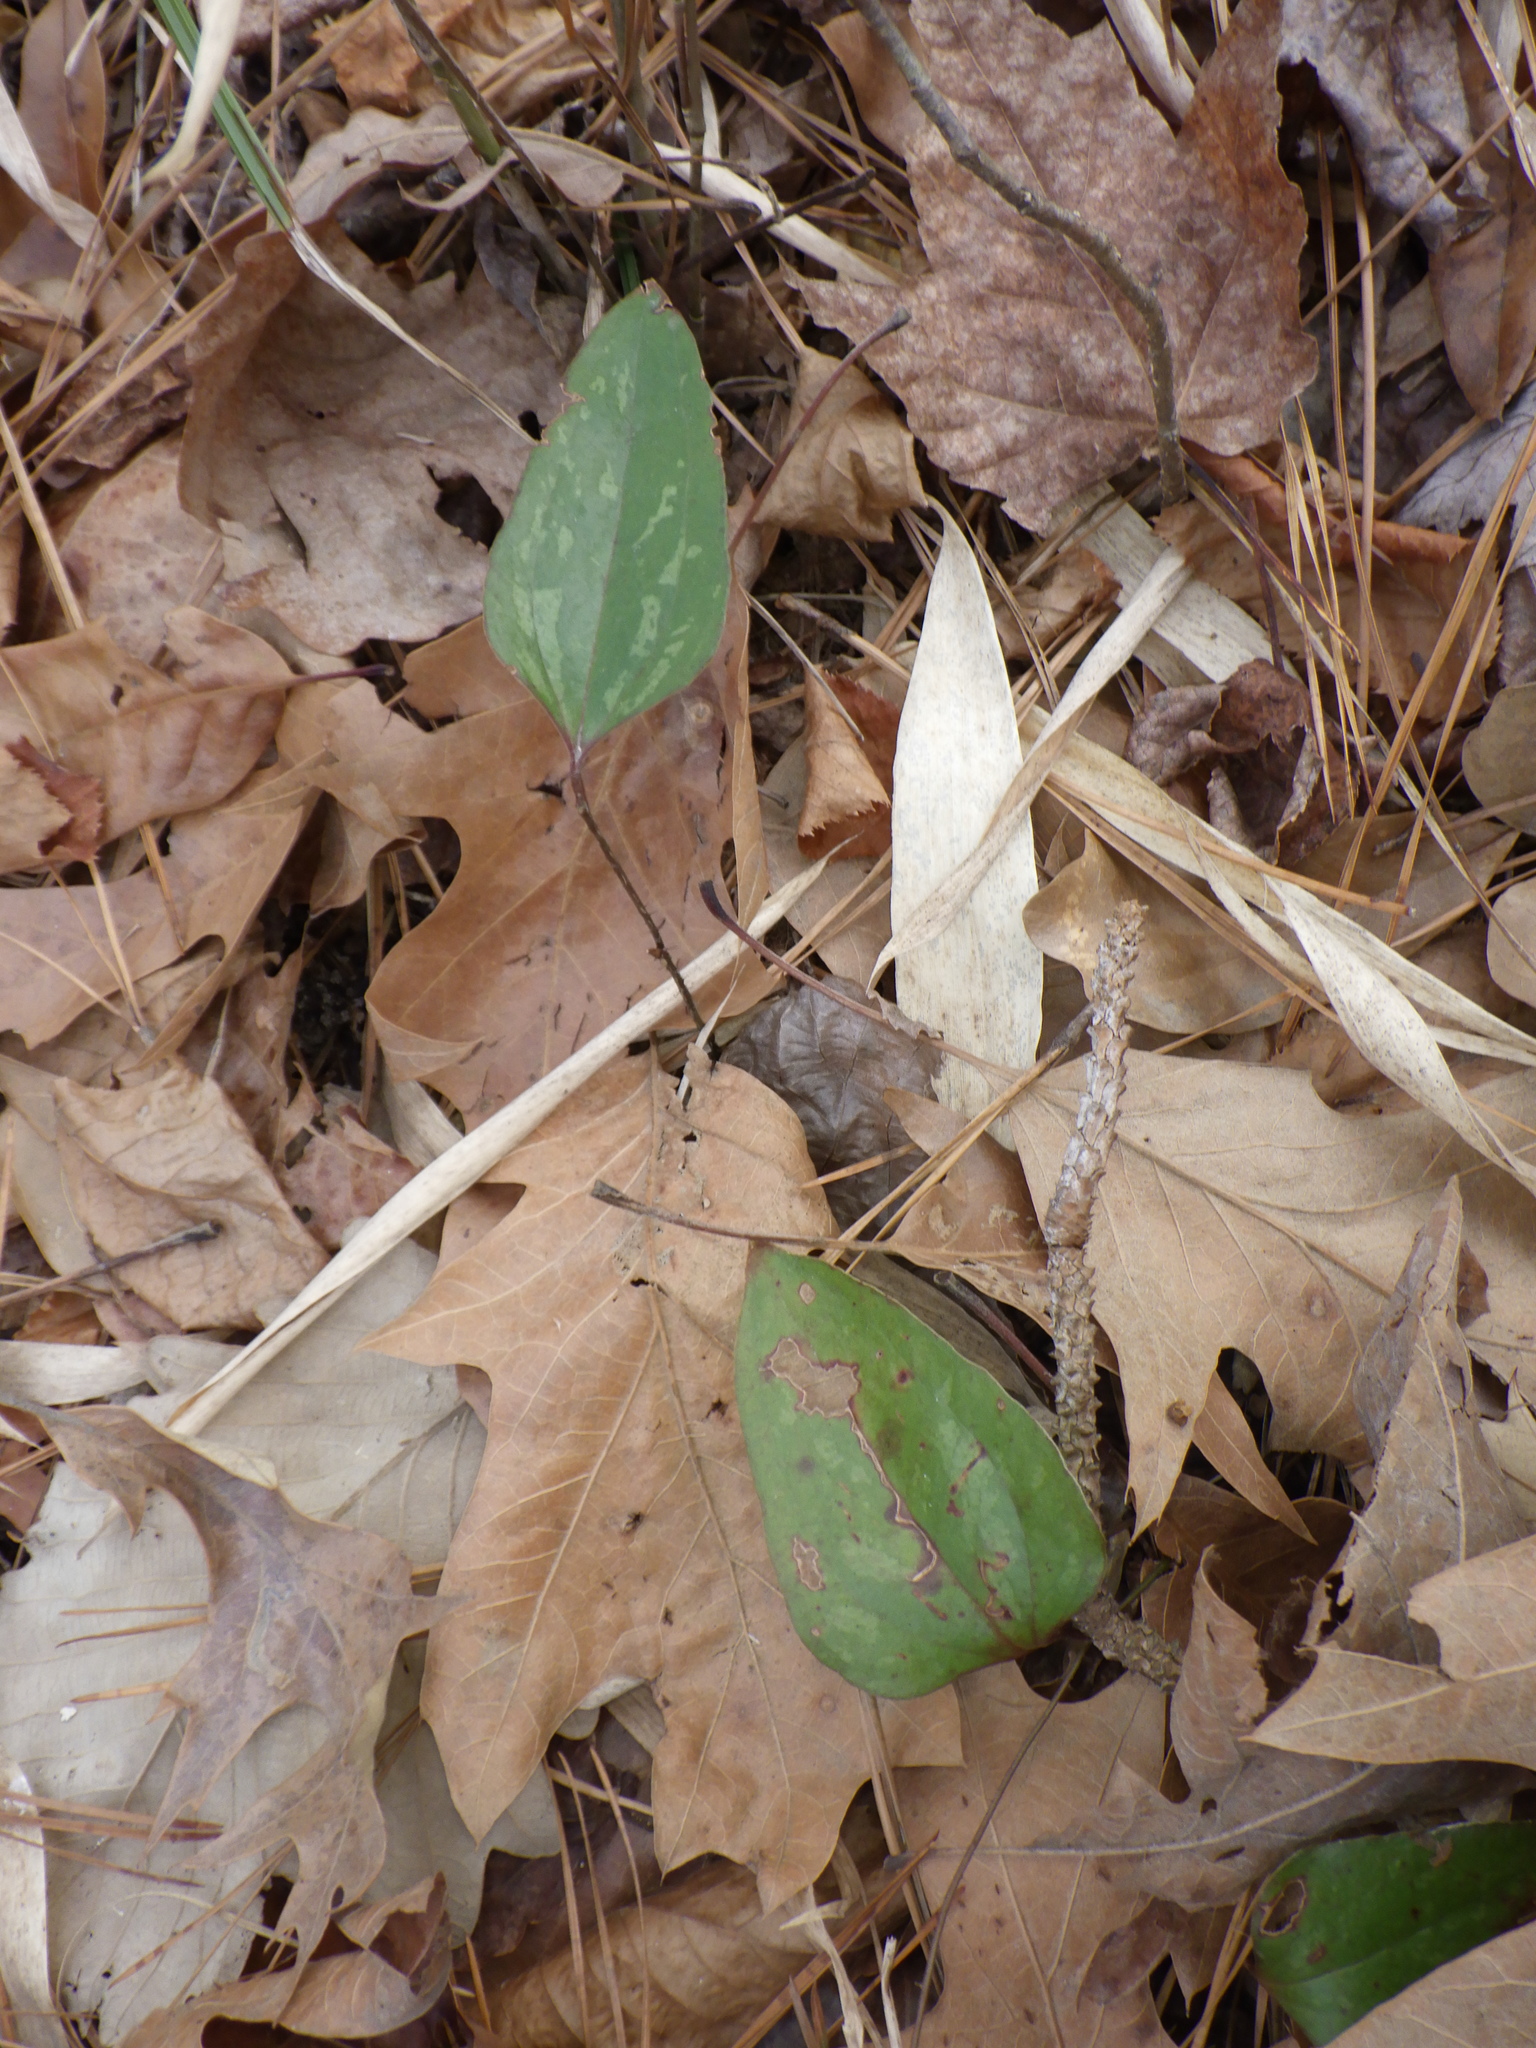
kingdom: Plantae
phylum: Tracheophyta
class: Liliopsida
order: Liliales
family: Smilacaceae
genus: Smilax
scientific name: Smilax glauca
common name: Cat greenbrier
